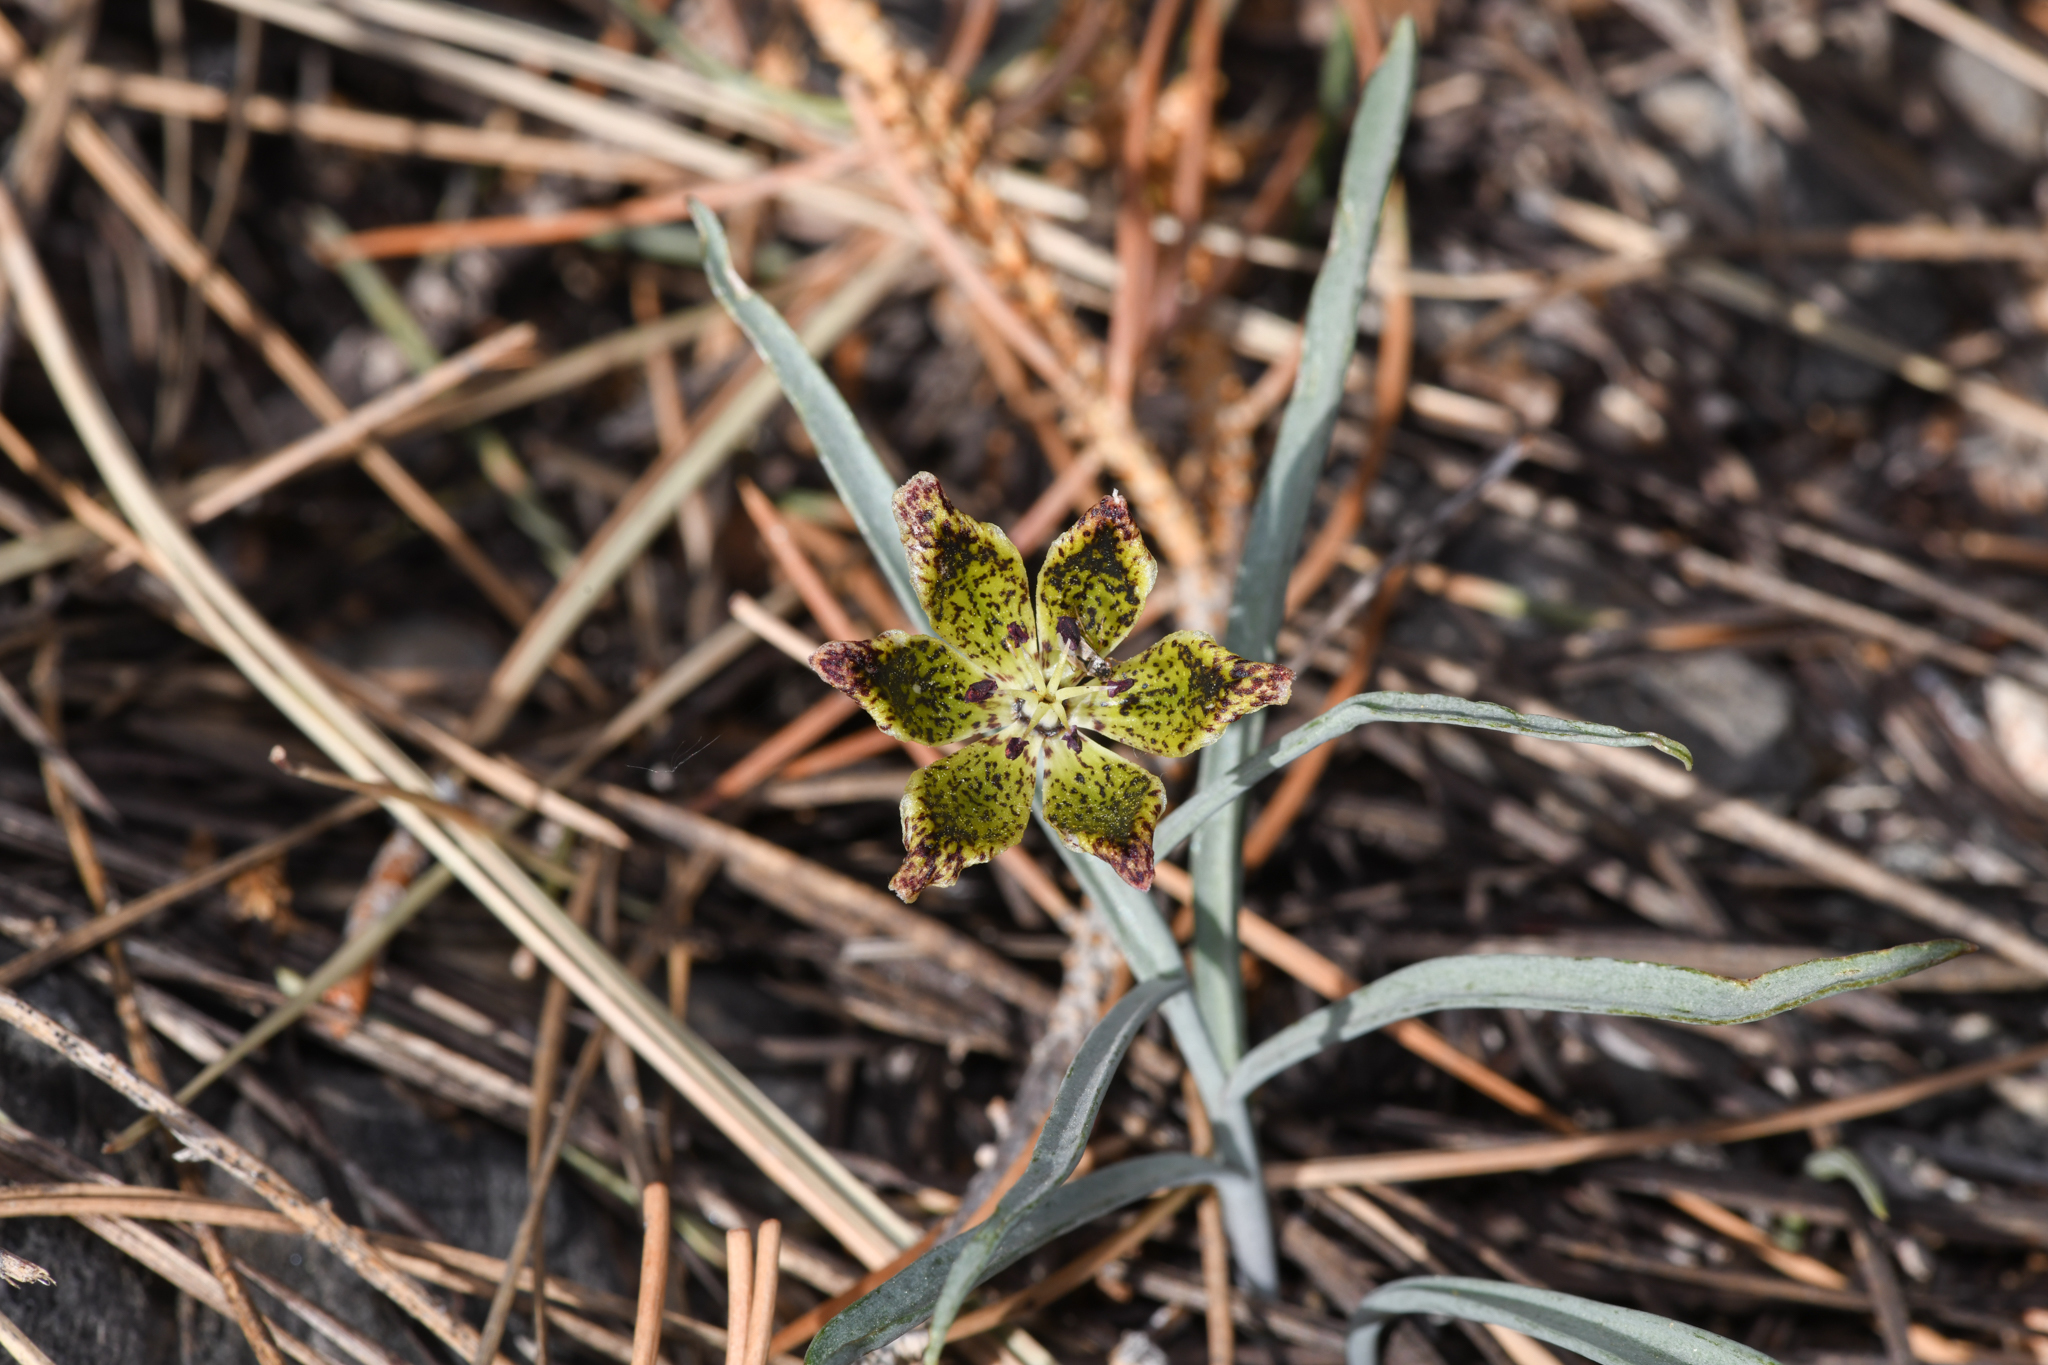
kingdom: Plantae
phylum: Tracheophyta
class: Liliopsida
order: Liliales
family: Liliaceae
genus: Fritillaria
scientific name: Fritillaria pinetorum
